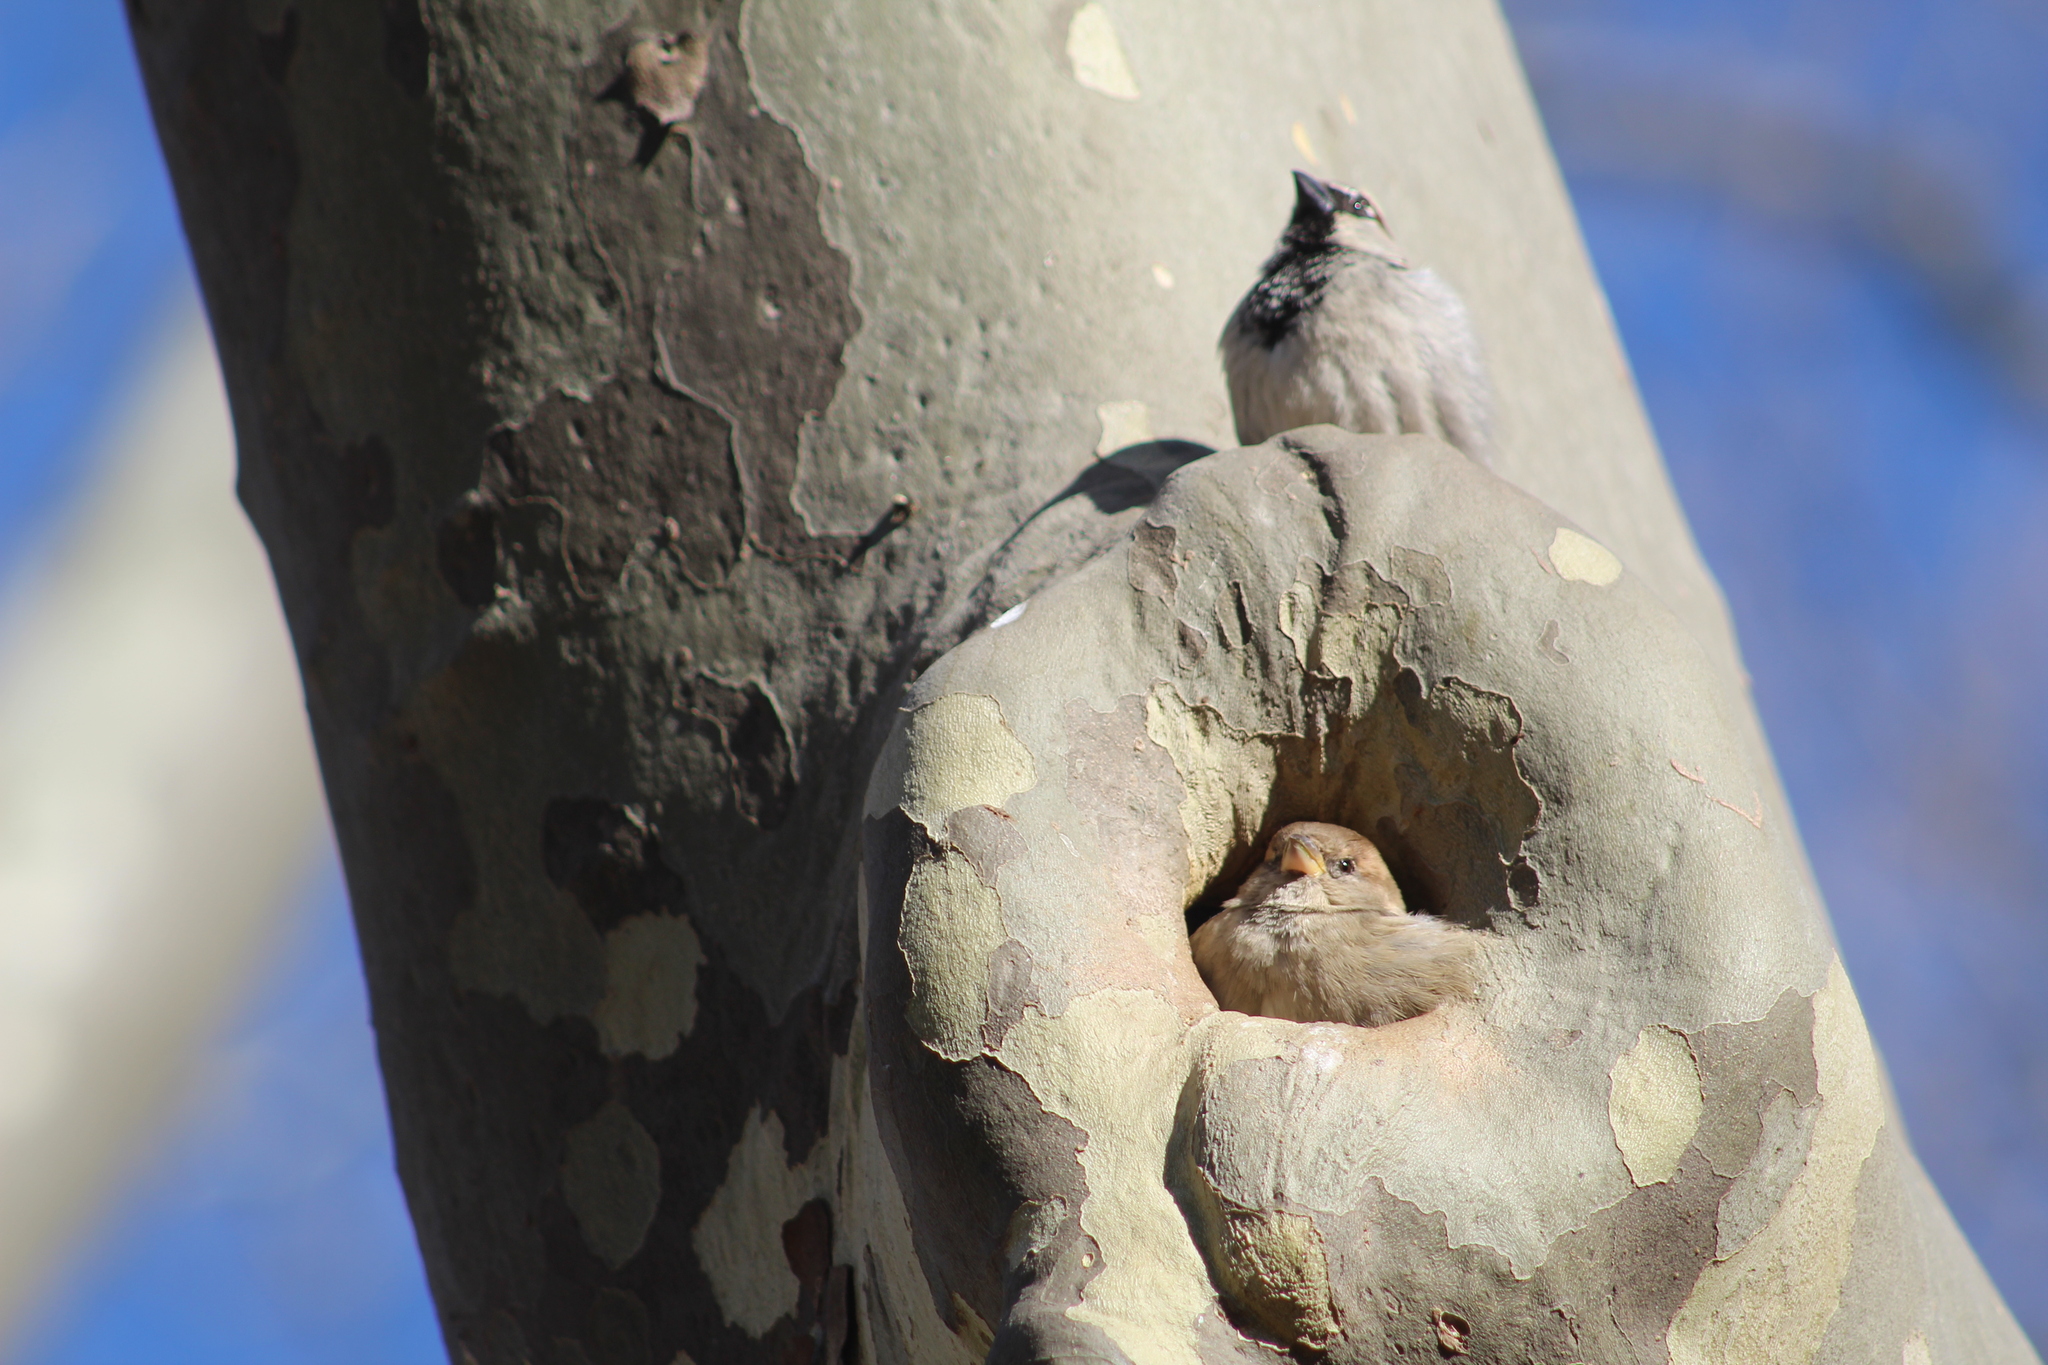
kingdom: Animalia
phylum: Chordata
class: Aves
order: Passeriformes
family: Passeridae
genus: Passer
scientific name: Passer domesticus
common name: House sparrow
